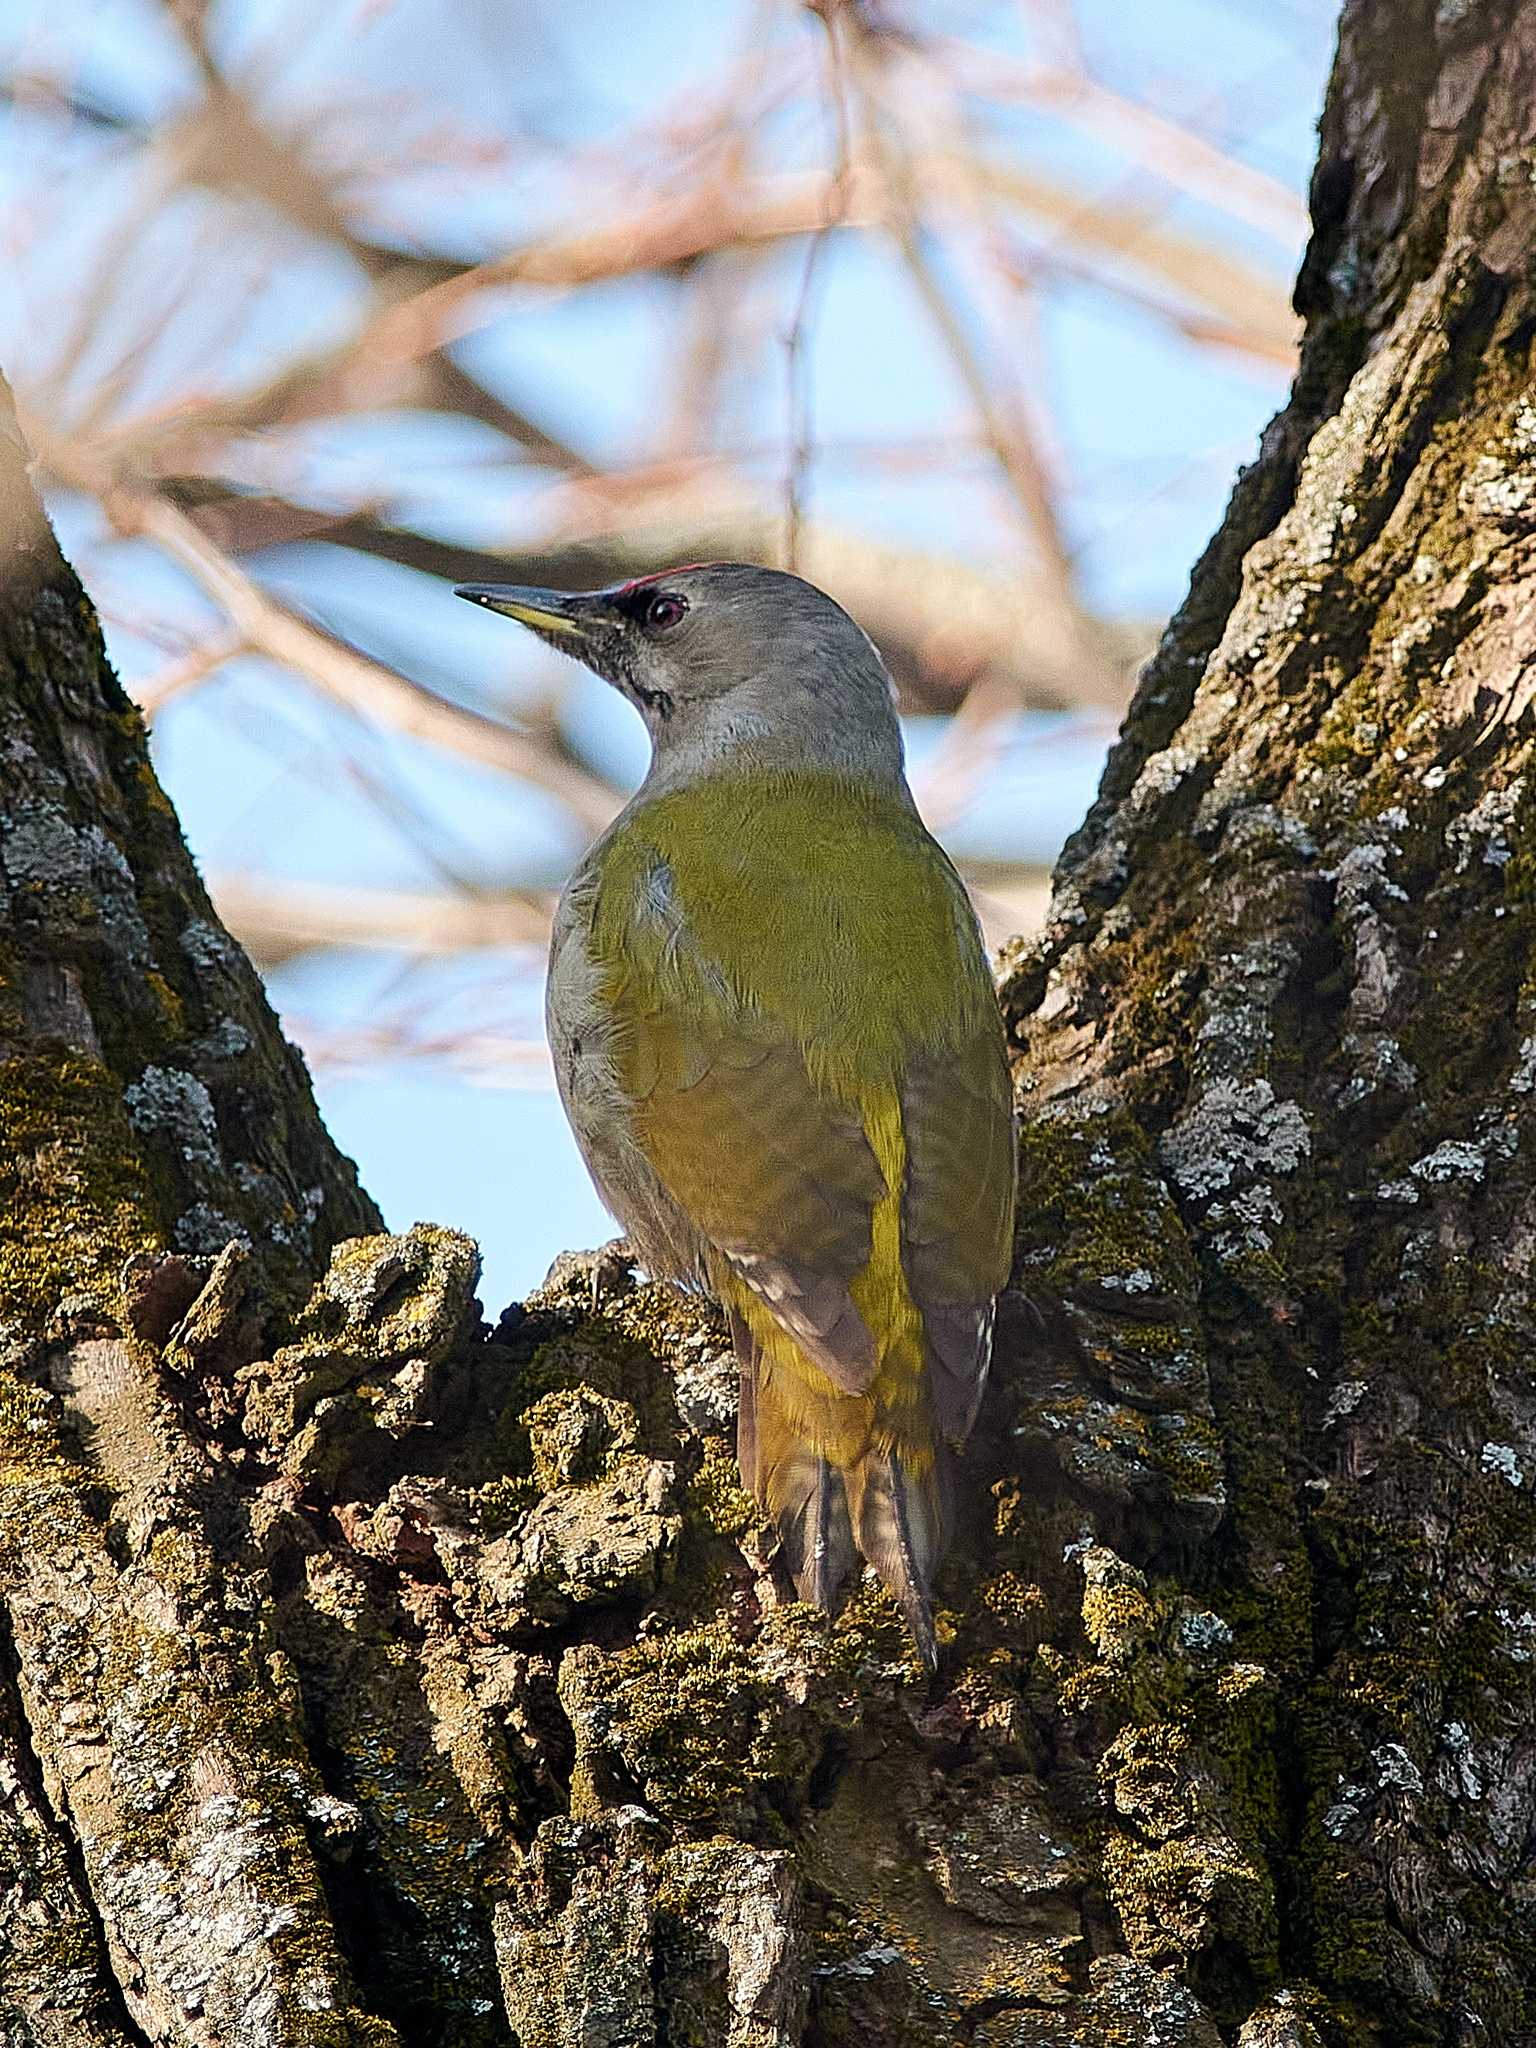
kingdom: Animalia
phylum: Chordata
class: Aves
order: Piciformes
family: Picidae
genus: Picus
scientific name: Picus canus
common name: Grey-headed woodpecker
